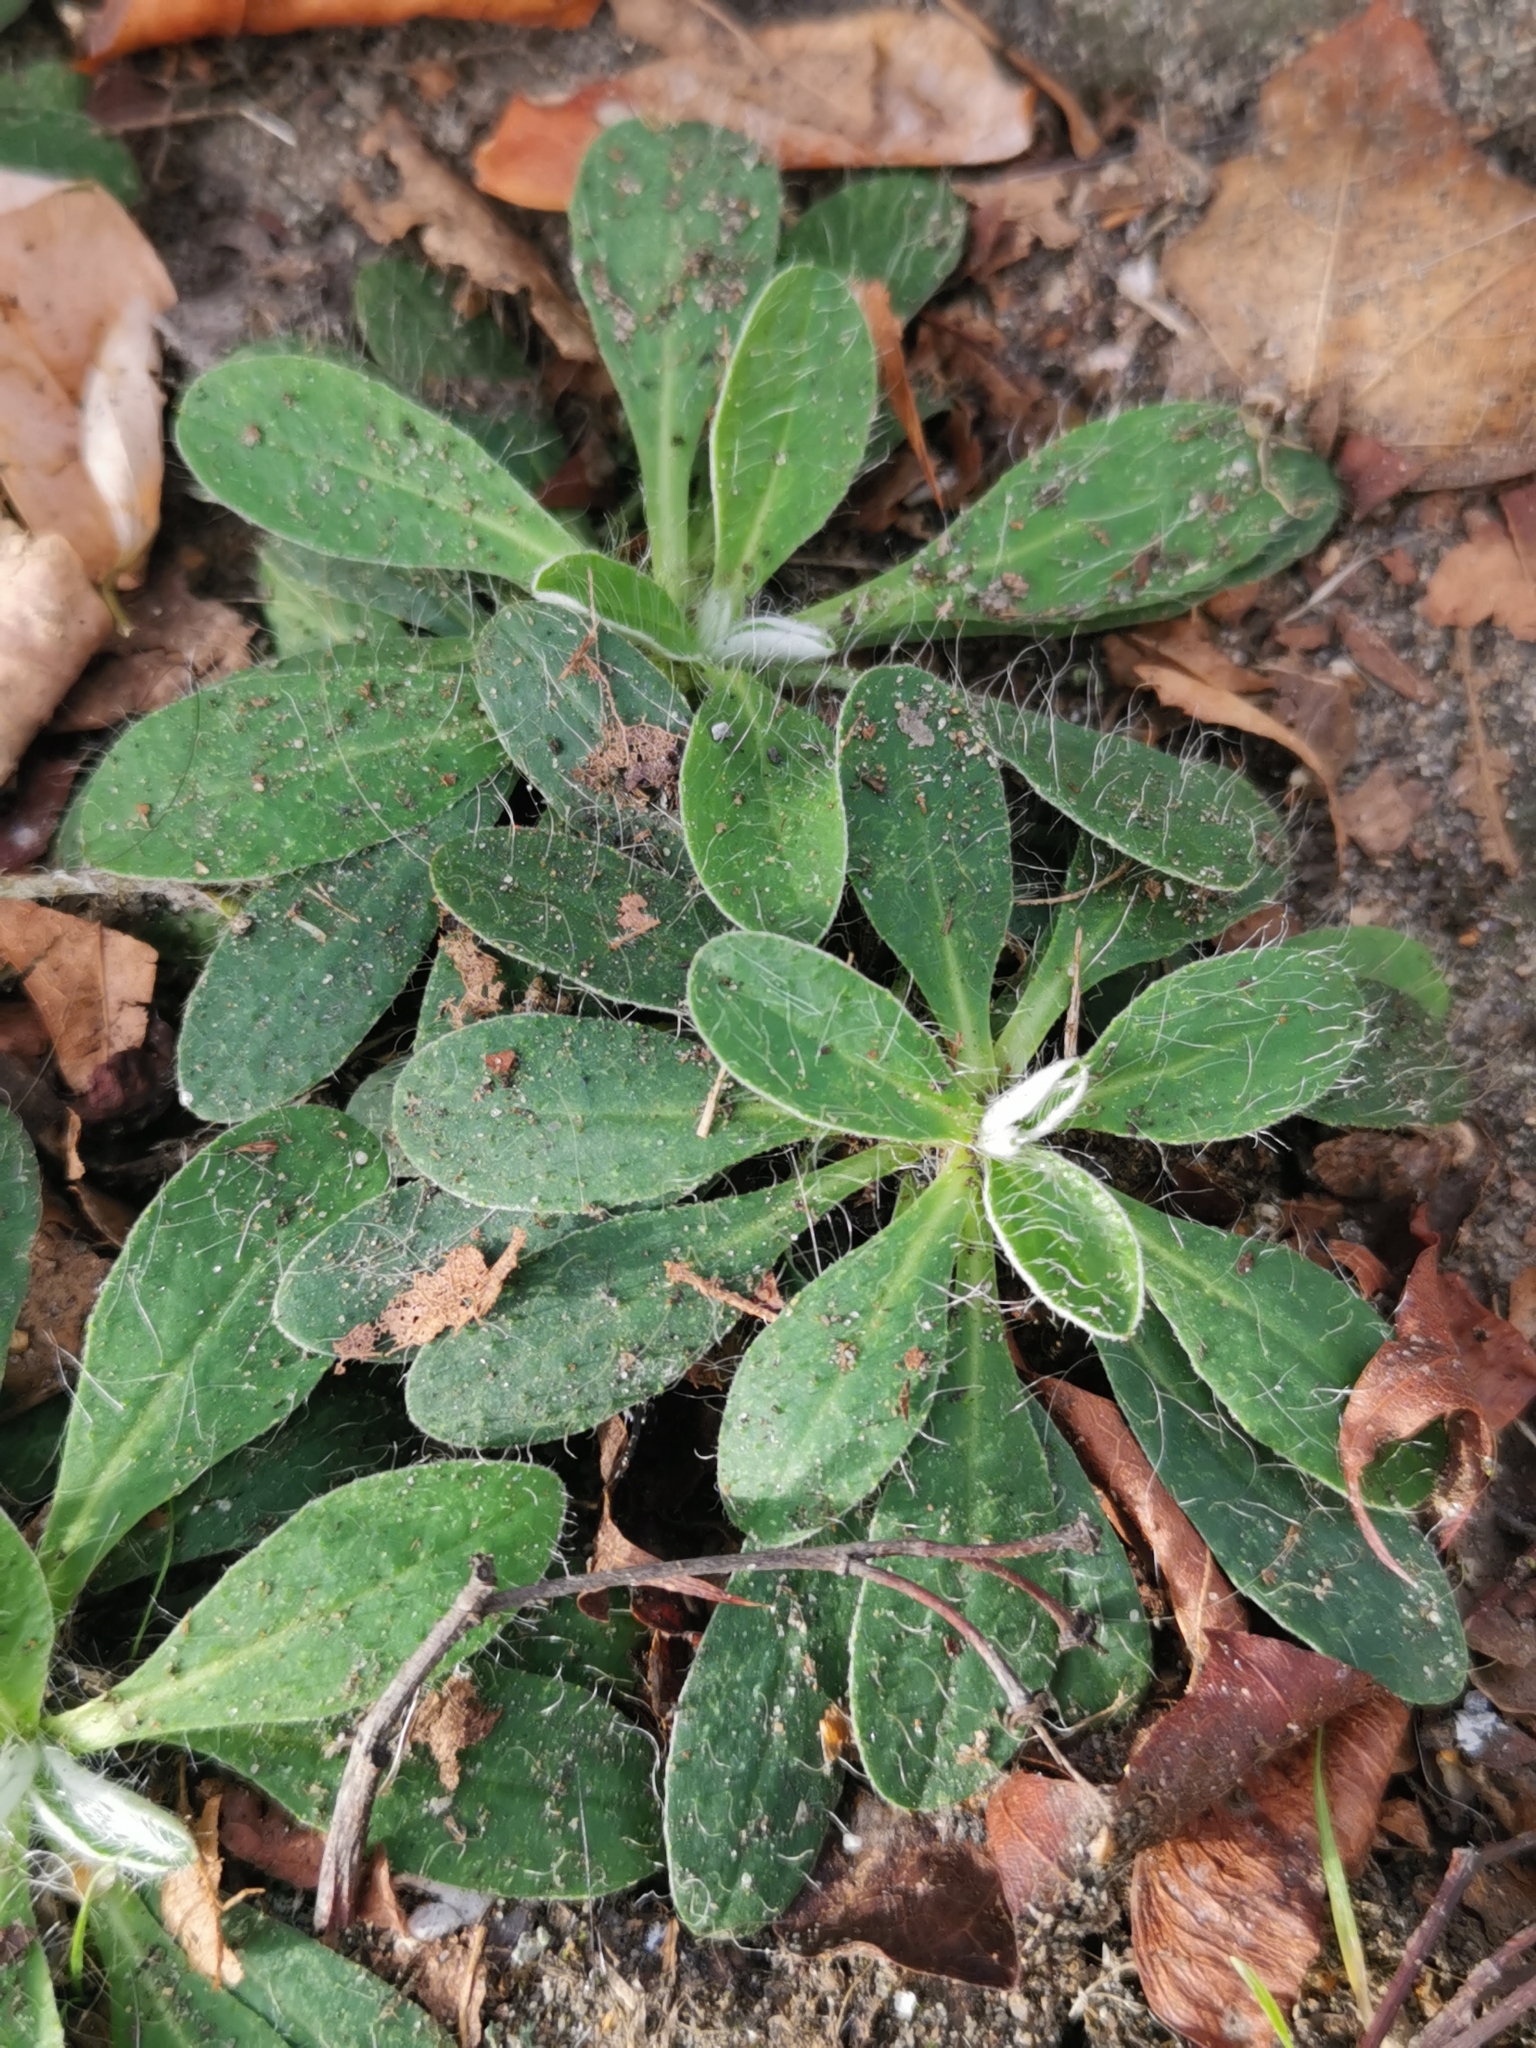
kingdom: Plantae
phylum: Tracheophyta
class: Magnoliopsida
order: Asterales
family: Asteraceae
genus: Pilosella
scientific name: Pilosella officinarum
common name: Mouse-ear hawkweed
